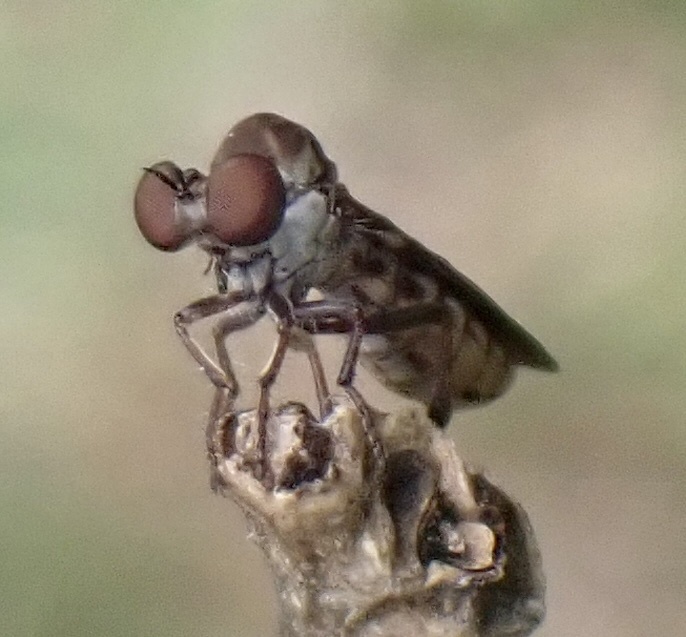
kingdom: Animalia
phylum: Arthropoda
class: Insecta
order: Diptera
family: Asilidae
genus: Holcocephala
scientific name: Holcocephala calva
